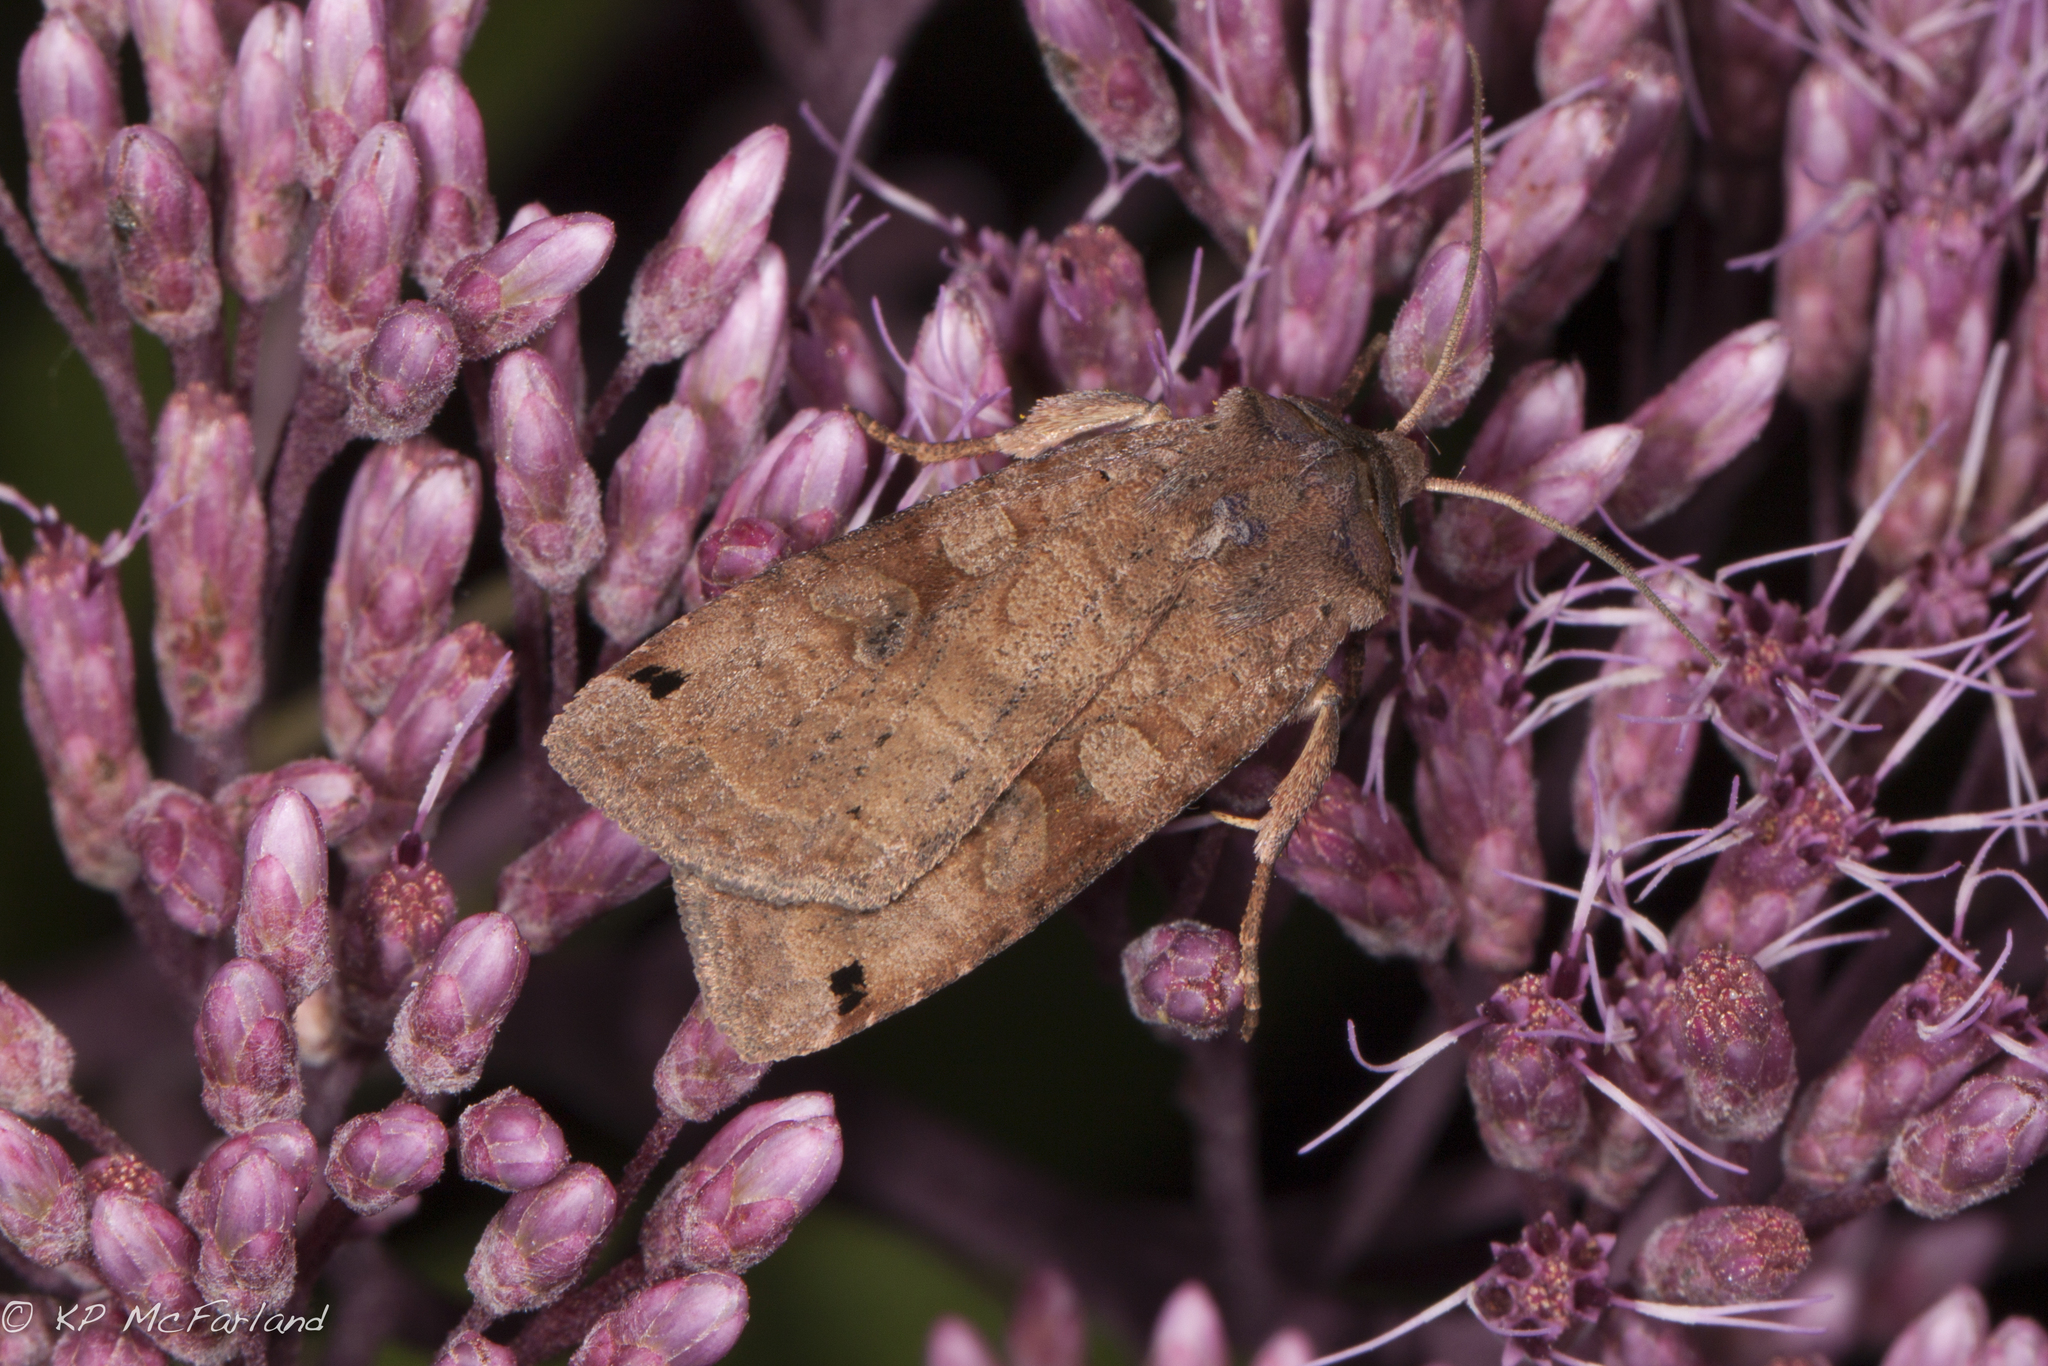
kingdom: Animalia
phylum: Arthropoda
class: Insecta
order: Lepidoptera
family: Noctuidae
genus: Xestia
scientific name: Xestia smithii
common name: Smith's dart
